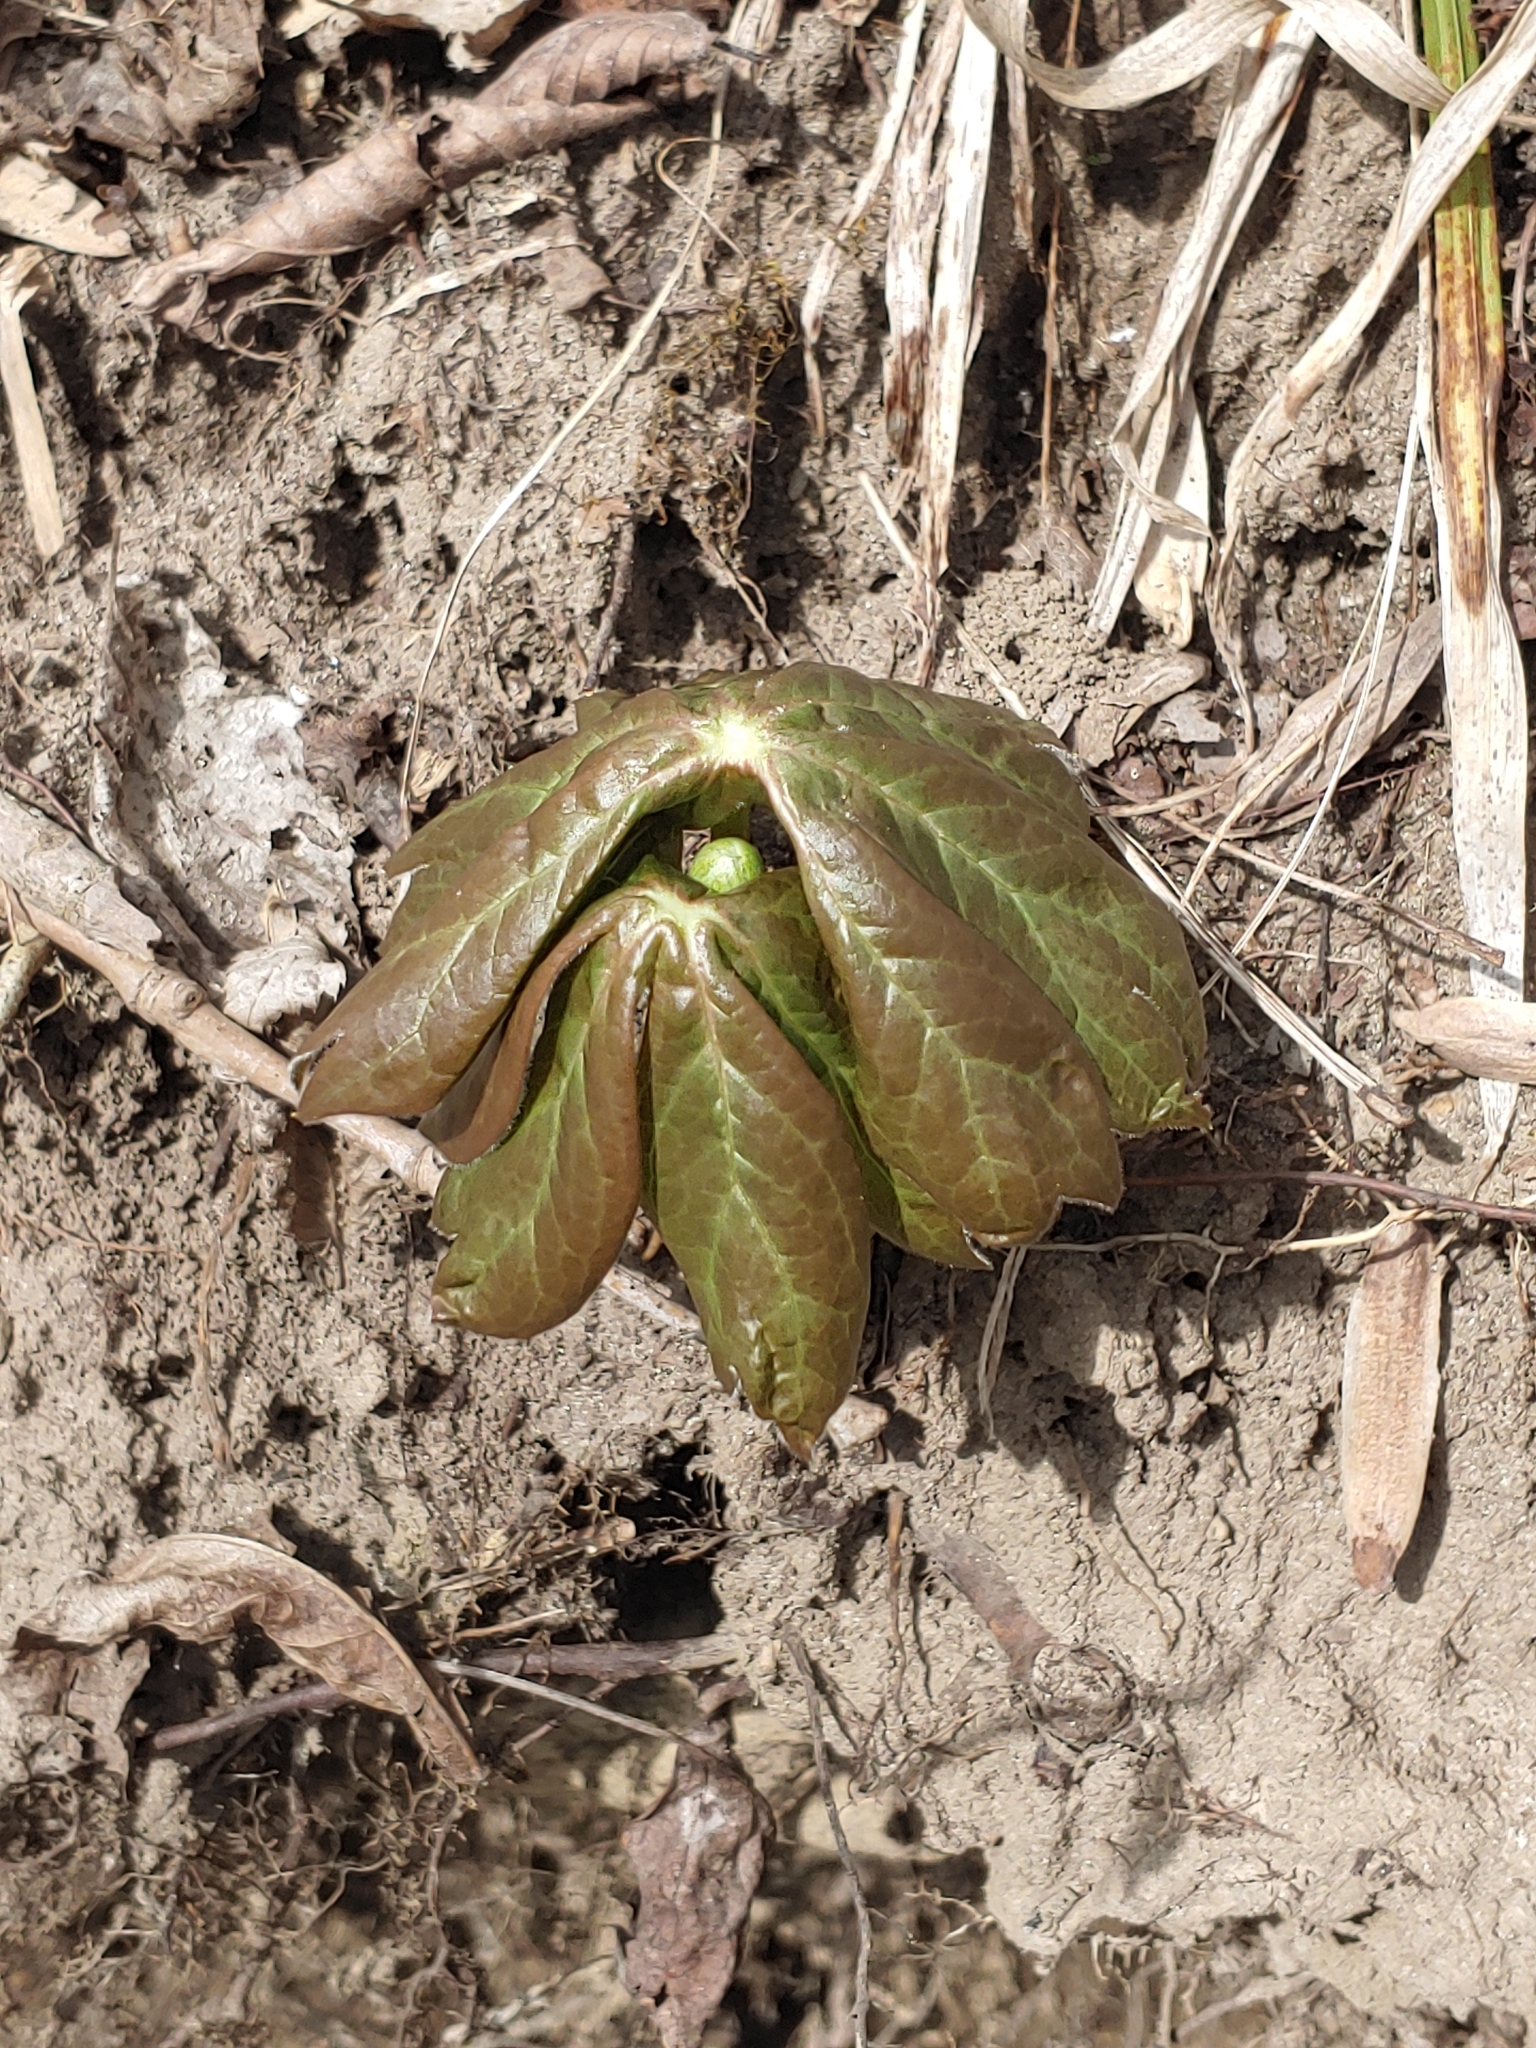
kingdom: Plantae
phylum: Tracheophyta
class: Magnoliopsida
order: Ranunculales
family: Berberidaceae
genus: Podophyllum
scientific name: Podophyllum peltatum
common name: Wild mandrake
